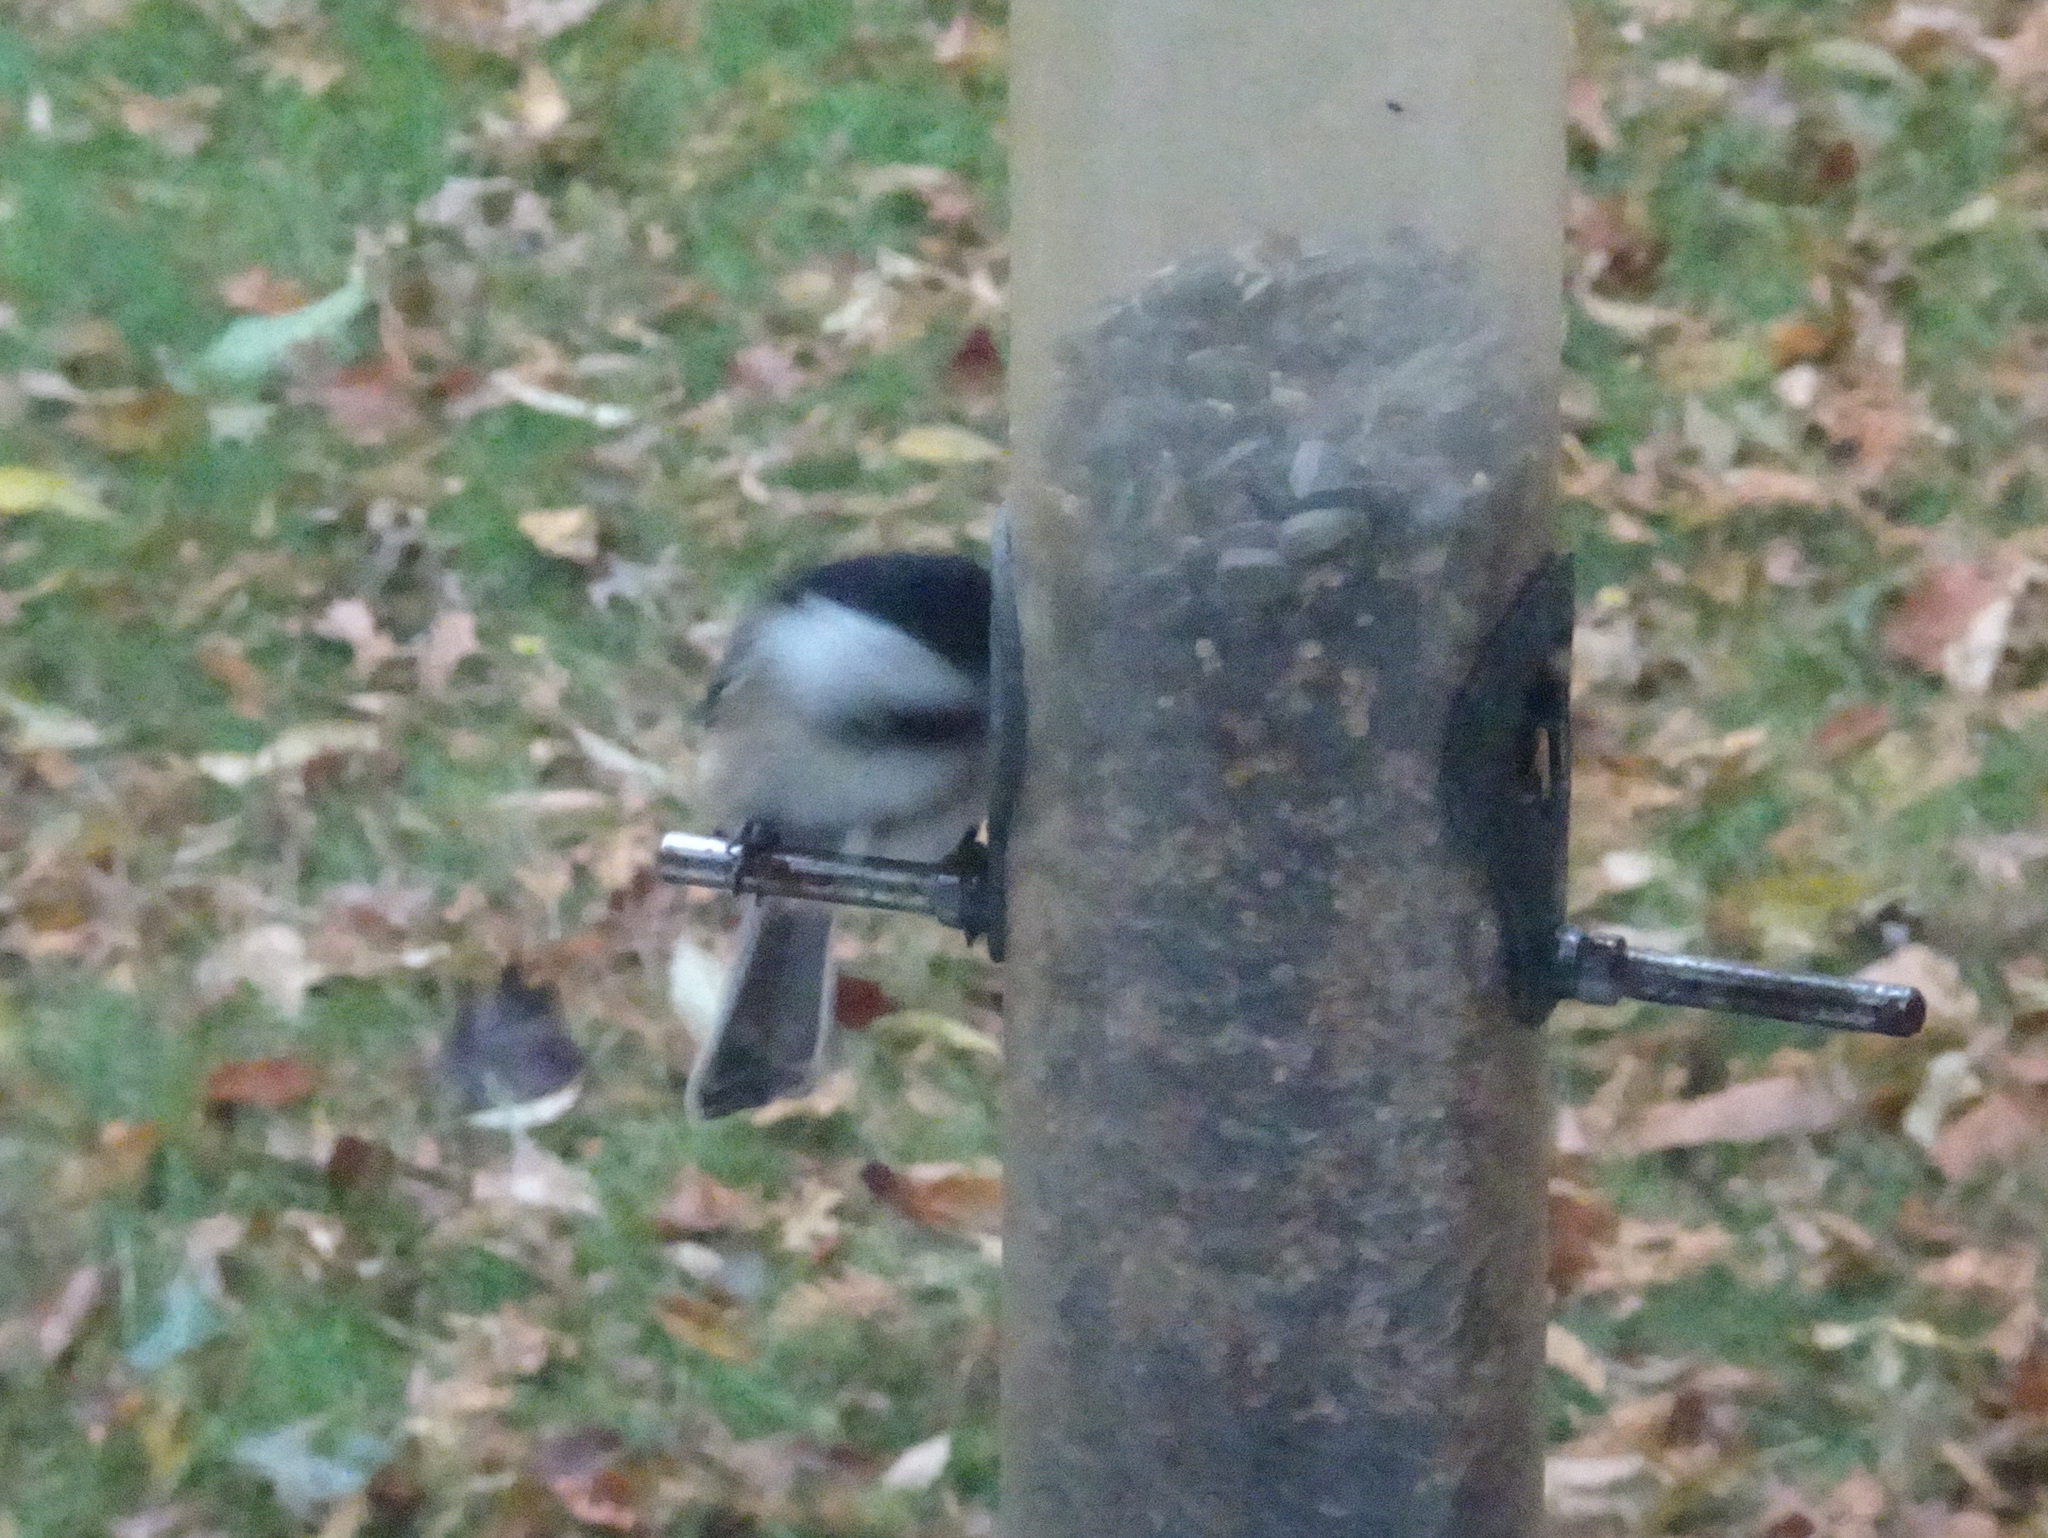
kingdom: Animalia
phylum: Chordata
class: Aves
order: Passeriformes
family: Paridae
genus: Poecile
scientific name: Poecile atricapillus
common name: Black-capped chickadee
